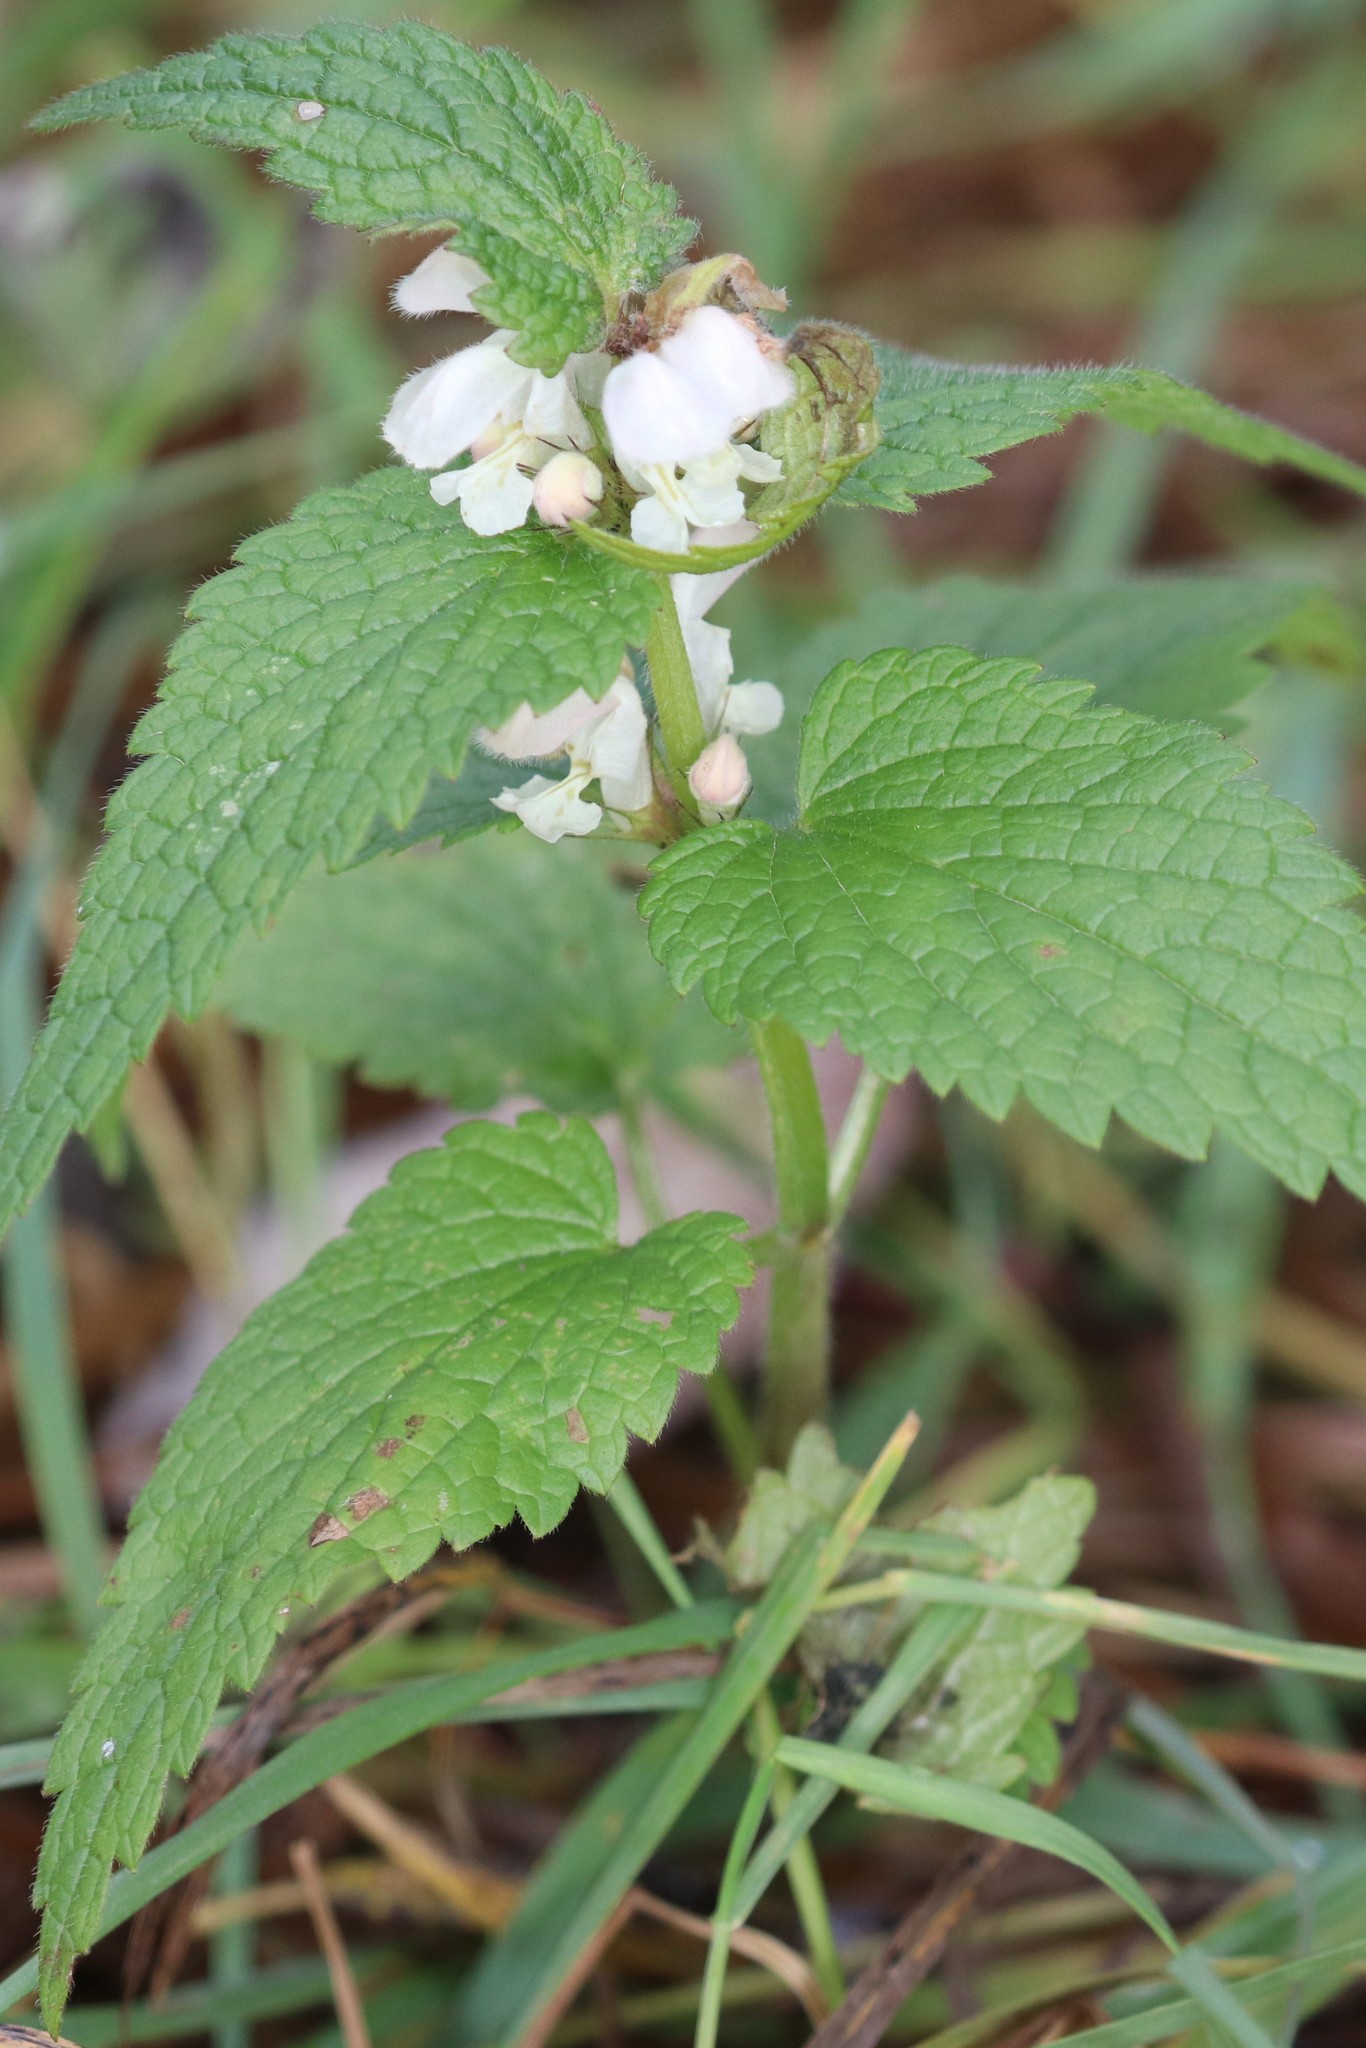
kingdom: Plantae
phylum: Tracheophyta
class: Magnoliopsida
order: Lamiales
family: Lamiaceae
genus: Lamium
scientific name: Lamium album
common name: White dead-nettle
